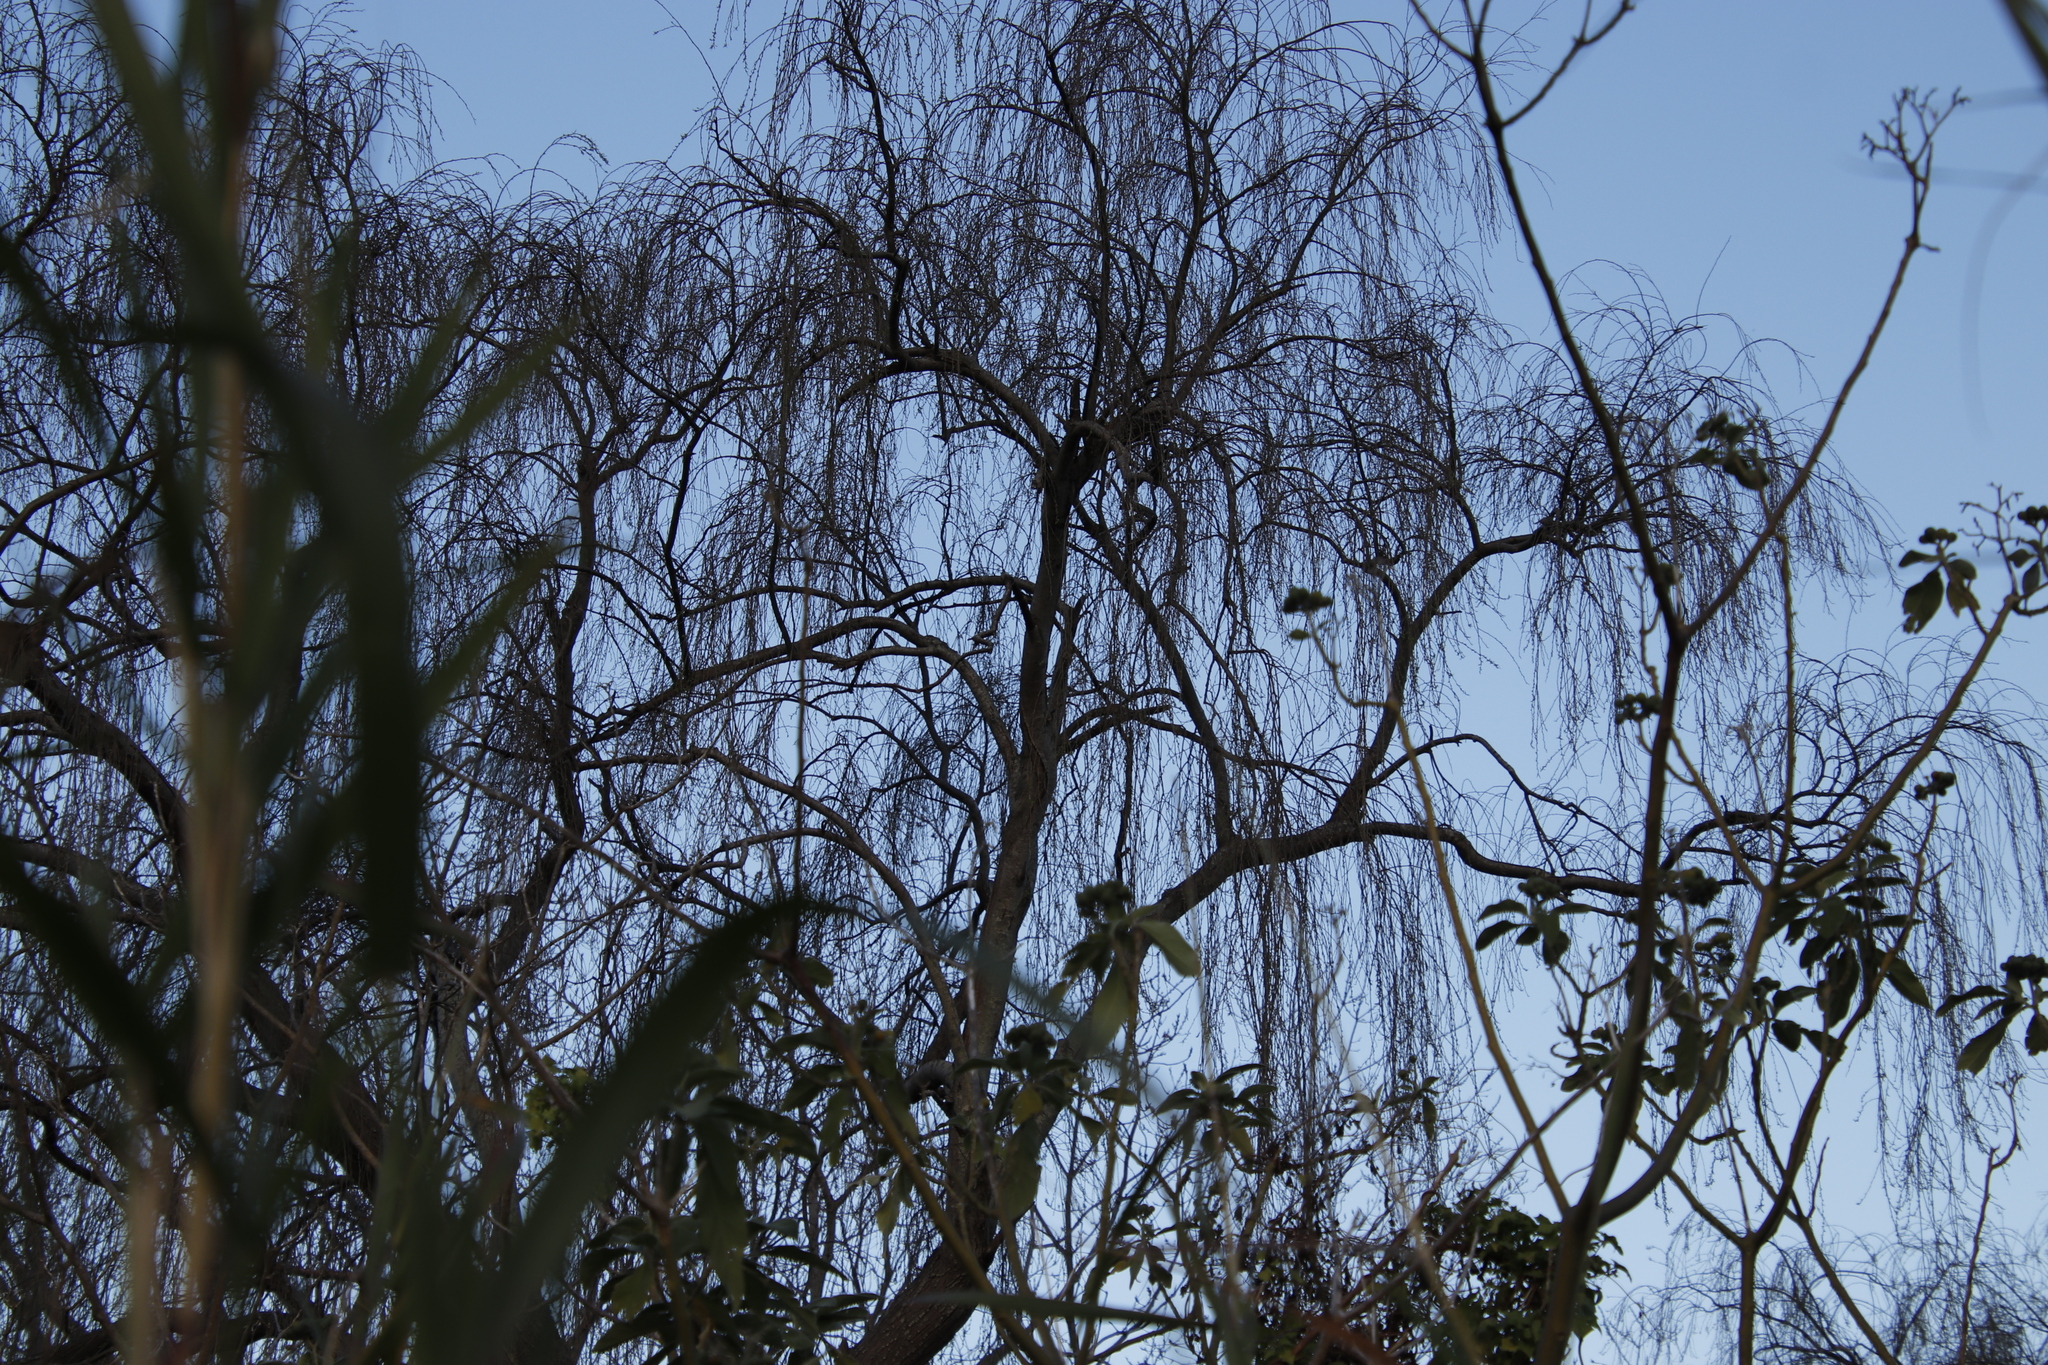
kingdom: Plantae
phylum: Tracheophyta
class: Magnoliopsida
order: Malpighiales
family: Salicaceae
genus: Salix
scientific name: Salix babylonica
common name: Weeping willow
